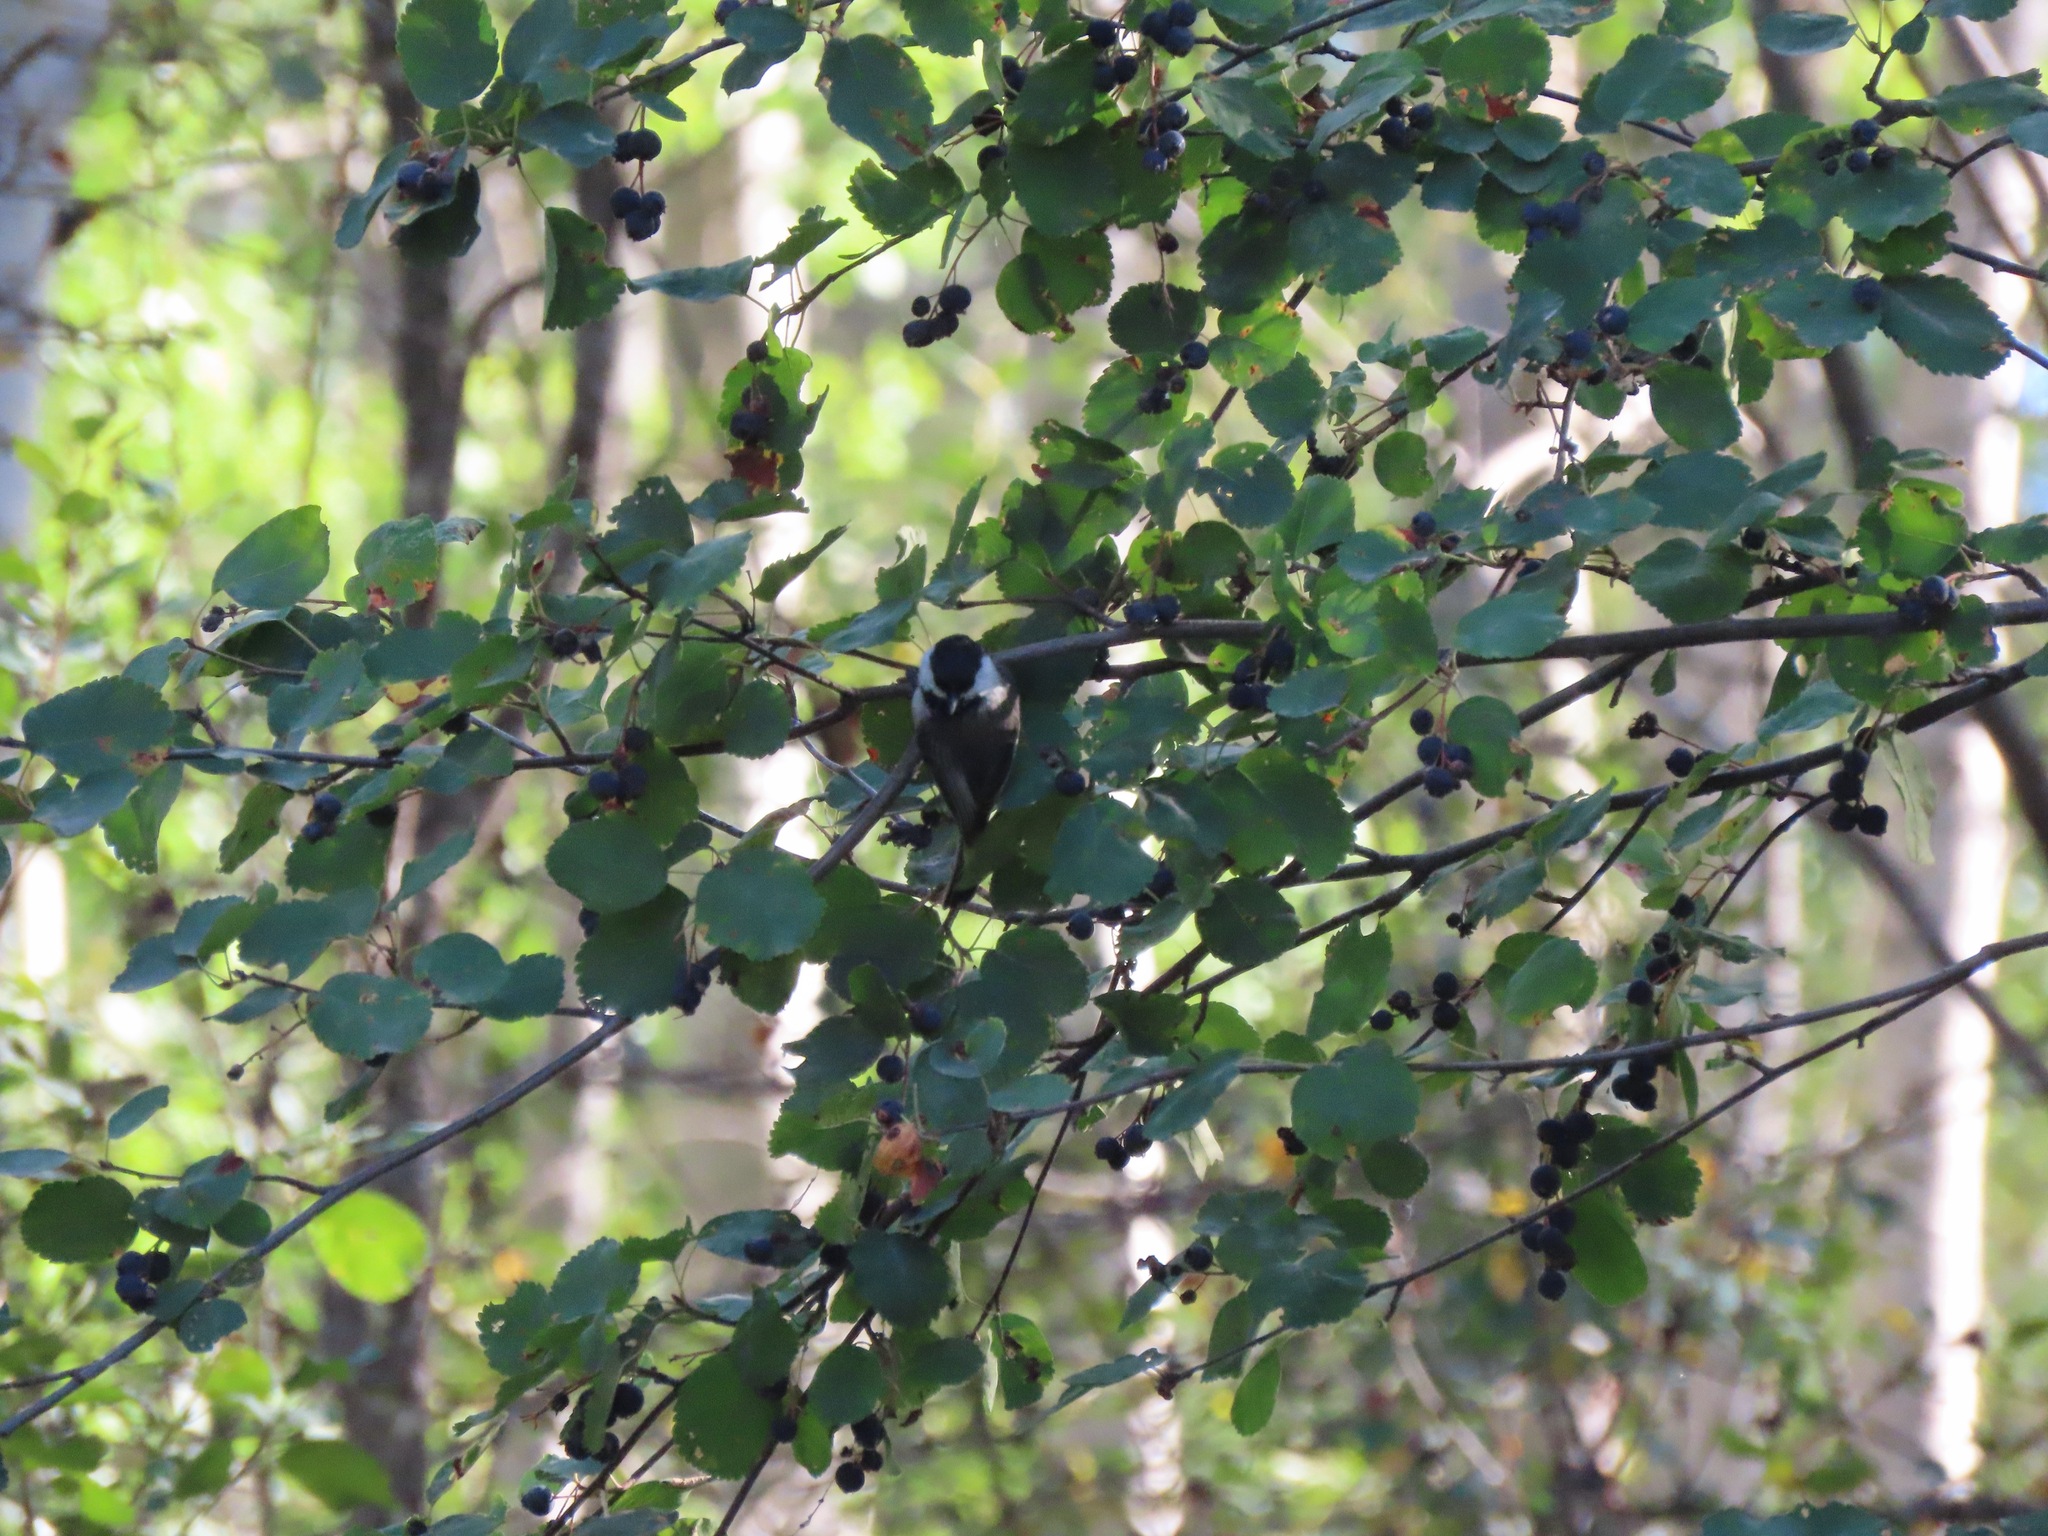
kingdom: Animalia
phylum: Chordata
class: Aves
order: Passeriformes
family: Paridae
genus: Poecile
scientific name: Poecile atricapillus
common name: Black-capped chickadee
